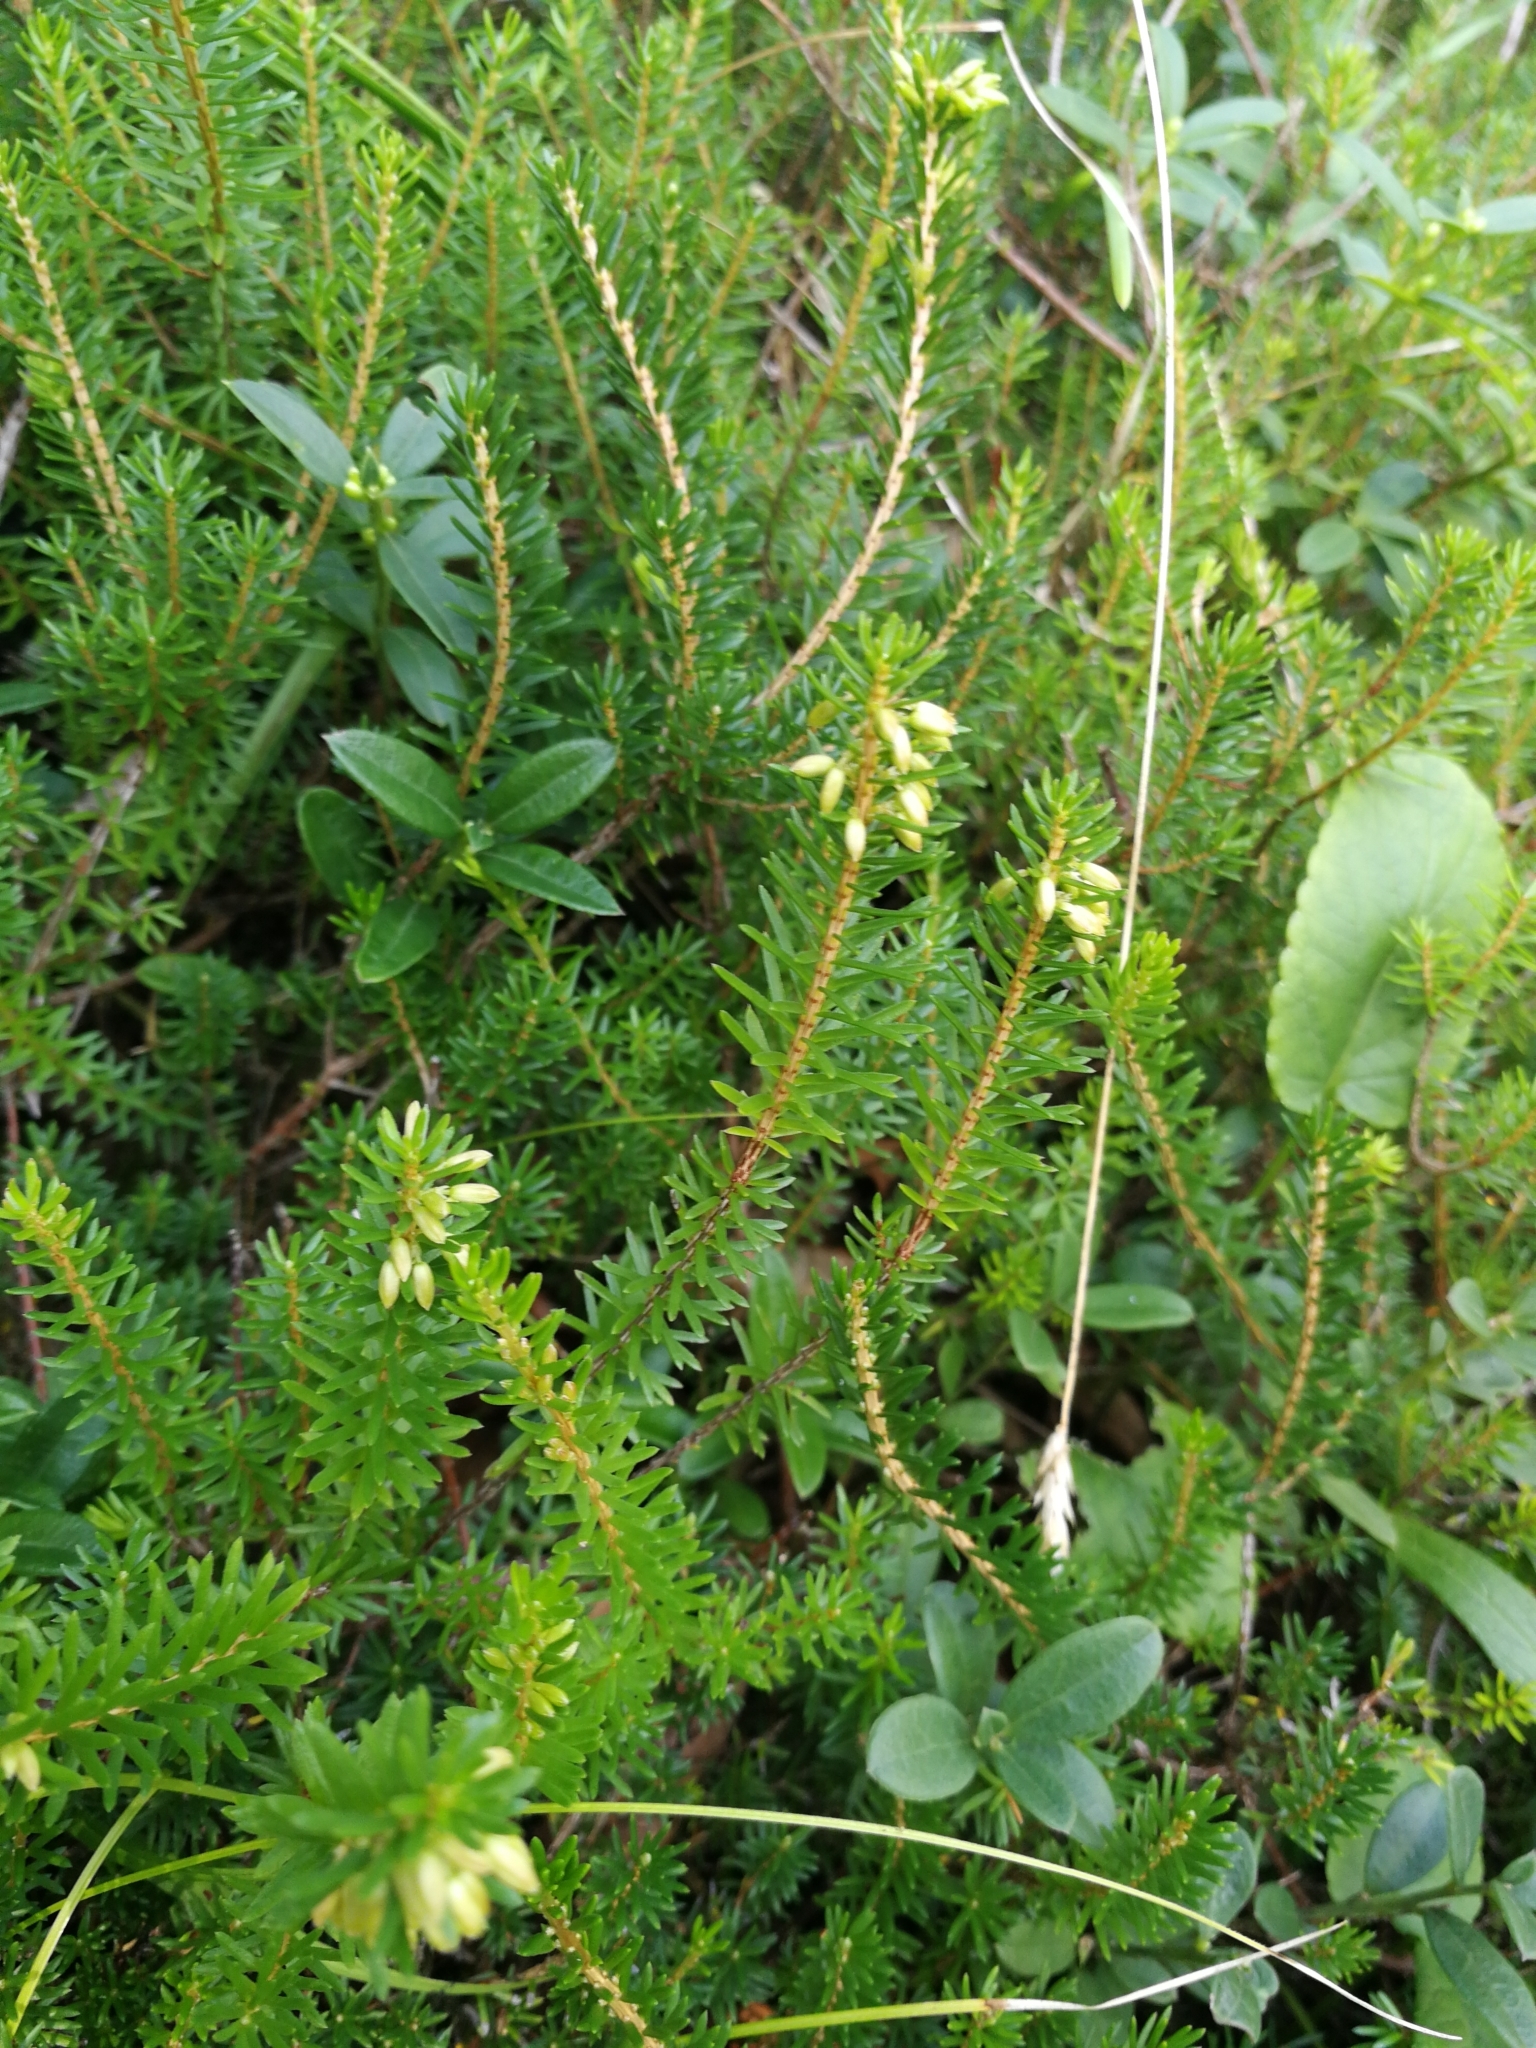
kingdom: Plantae
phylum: Tracheophyta
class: Magnoliopsida
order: Ericales
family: Ericaceae
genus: Erica
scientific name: Erica carnea
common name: Winter heath
